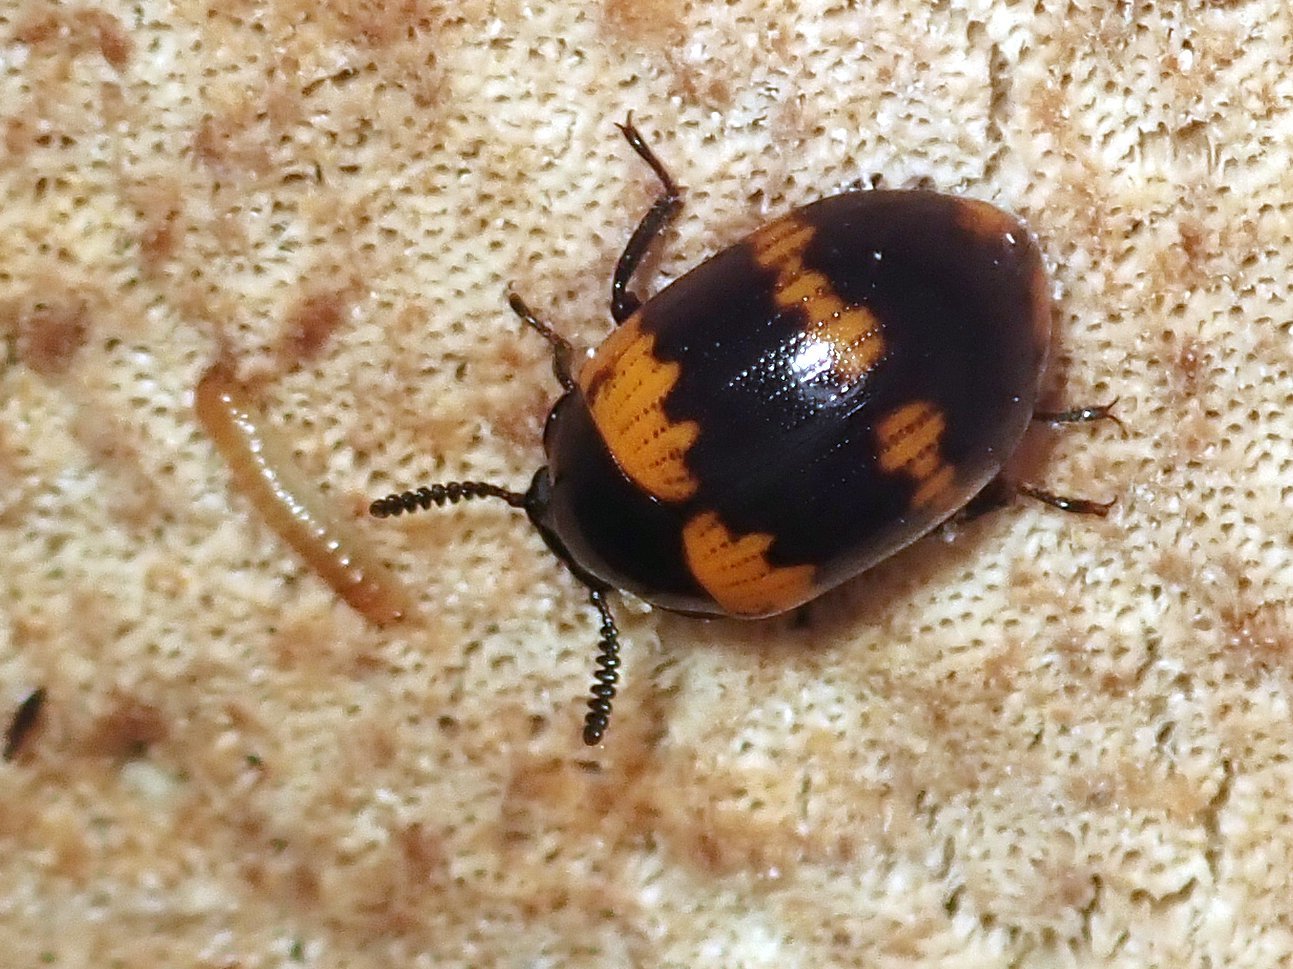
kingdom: Animalia
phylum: Arthropoda
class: Insecta
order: Coleoptera
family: Tenebrionidae
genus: Diaperis
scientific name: Diaperis boleti
